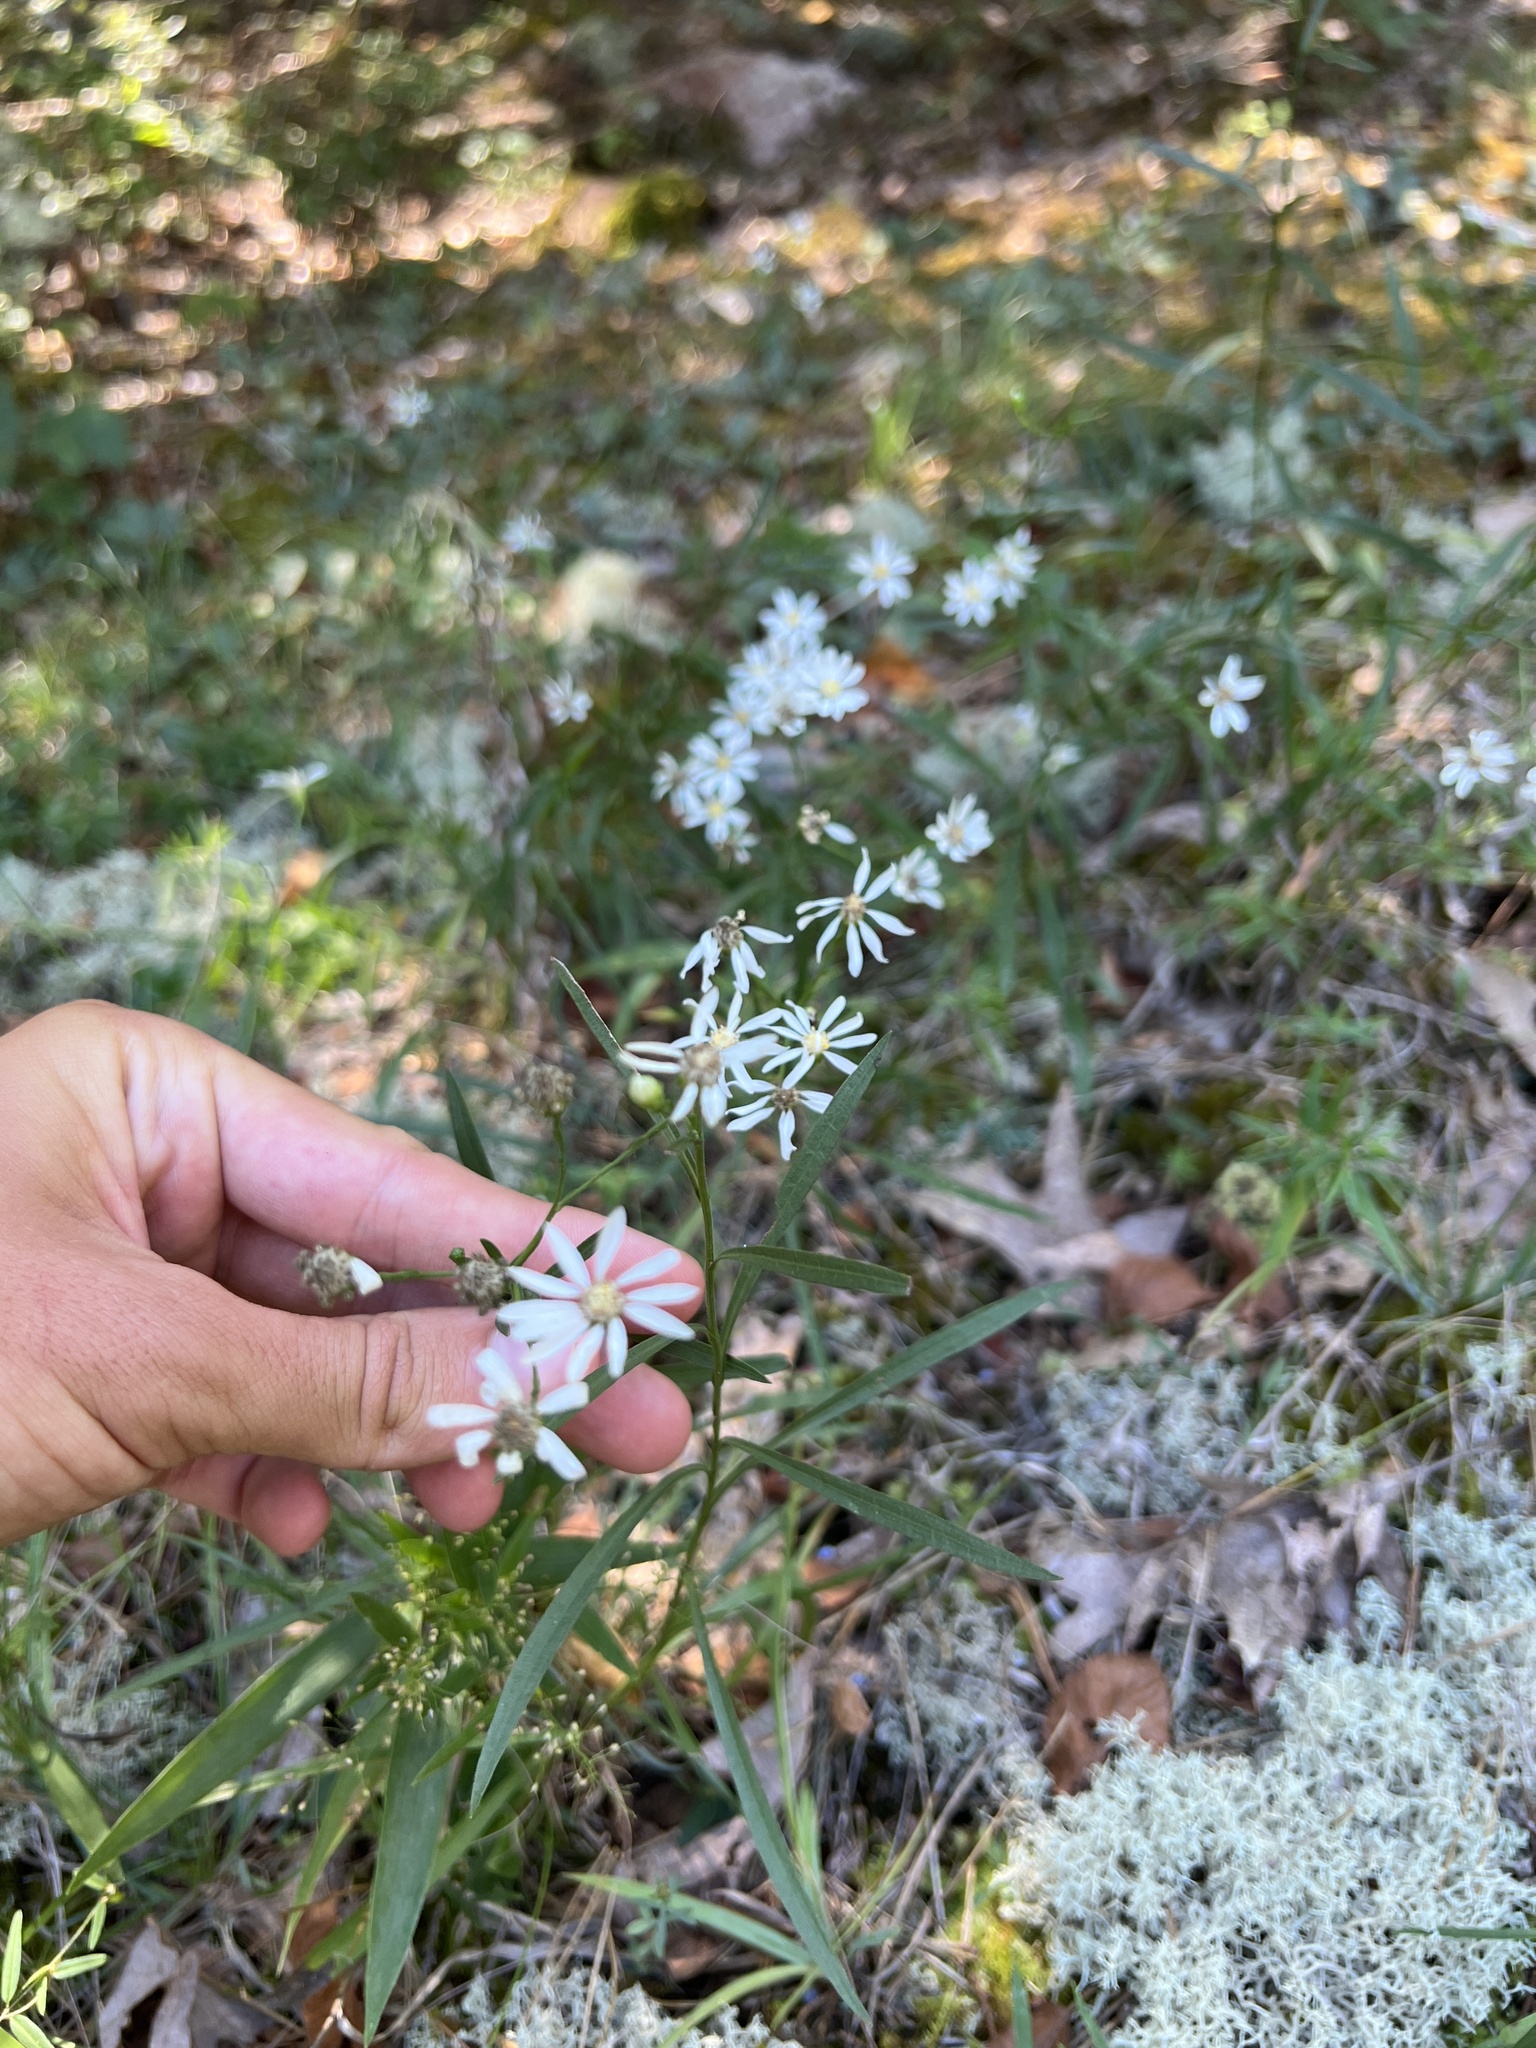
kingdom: Plantae
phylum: Tracheophyta
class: Magnoliopsida
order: Asterales
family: Asteraceae
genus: Solidago
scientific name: Solidago ptarmicoides
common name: White flat-top goldenrod
